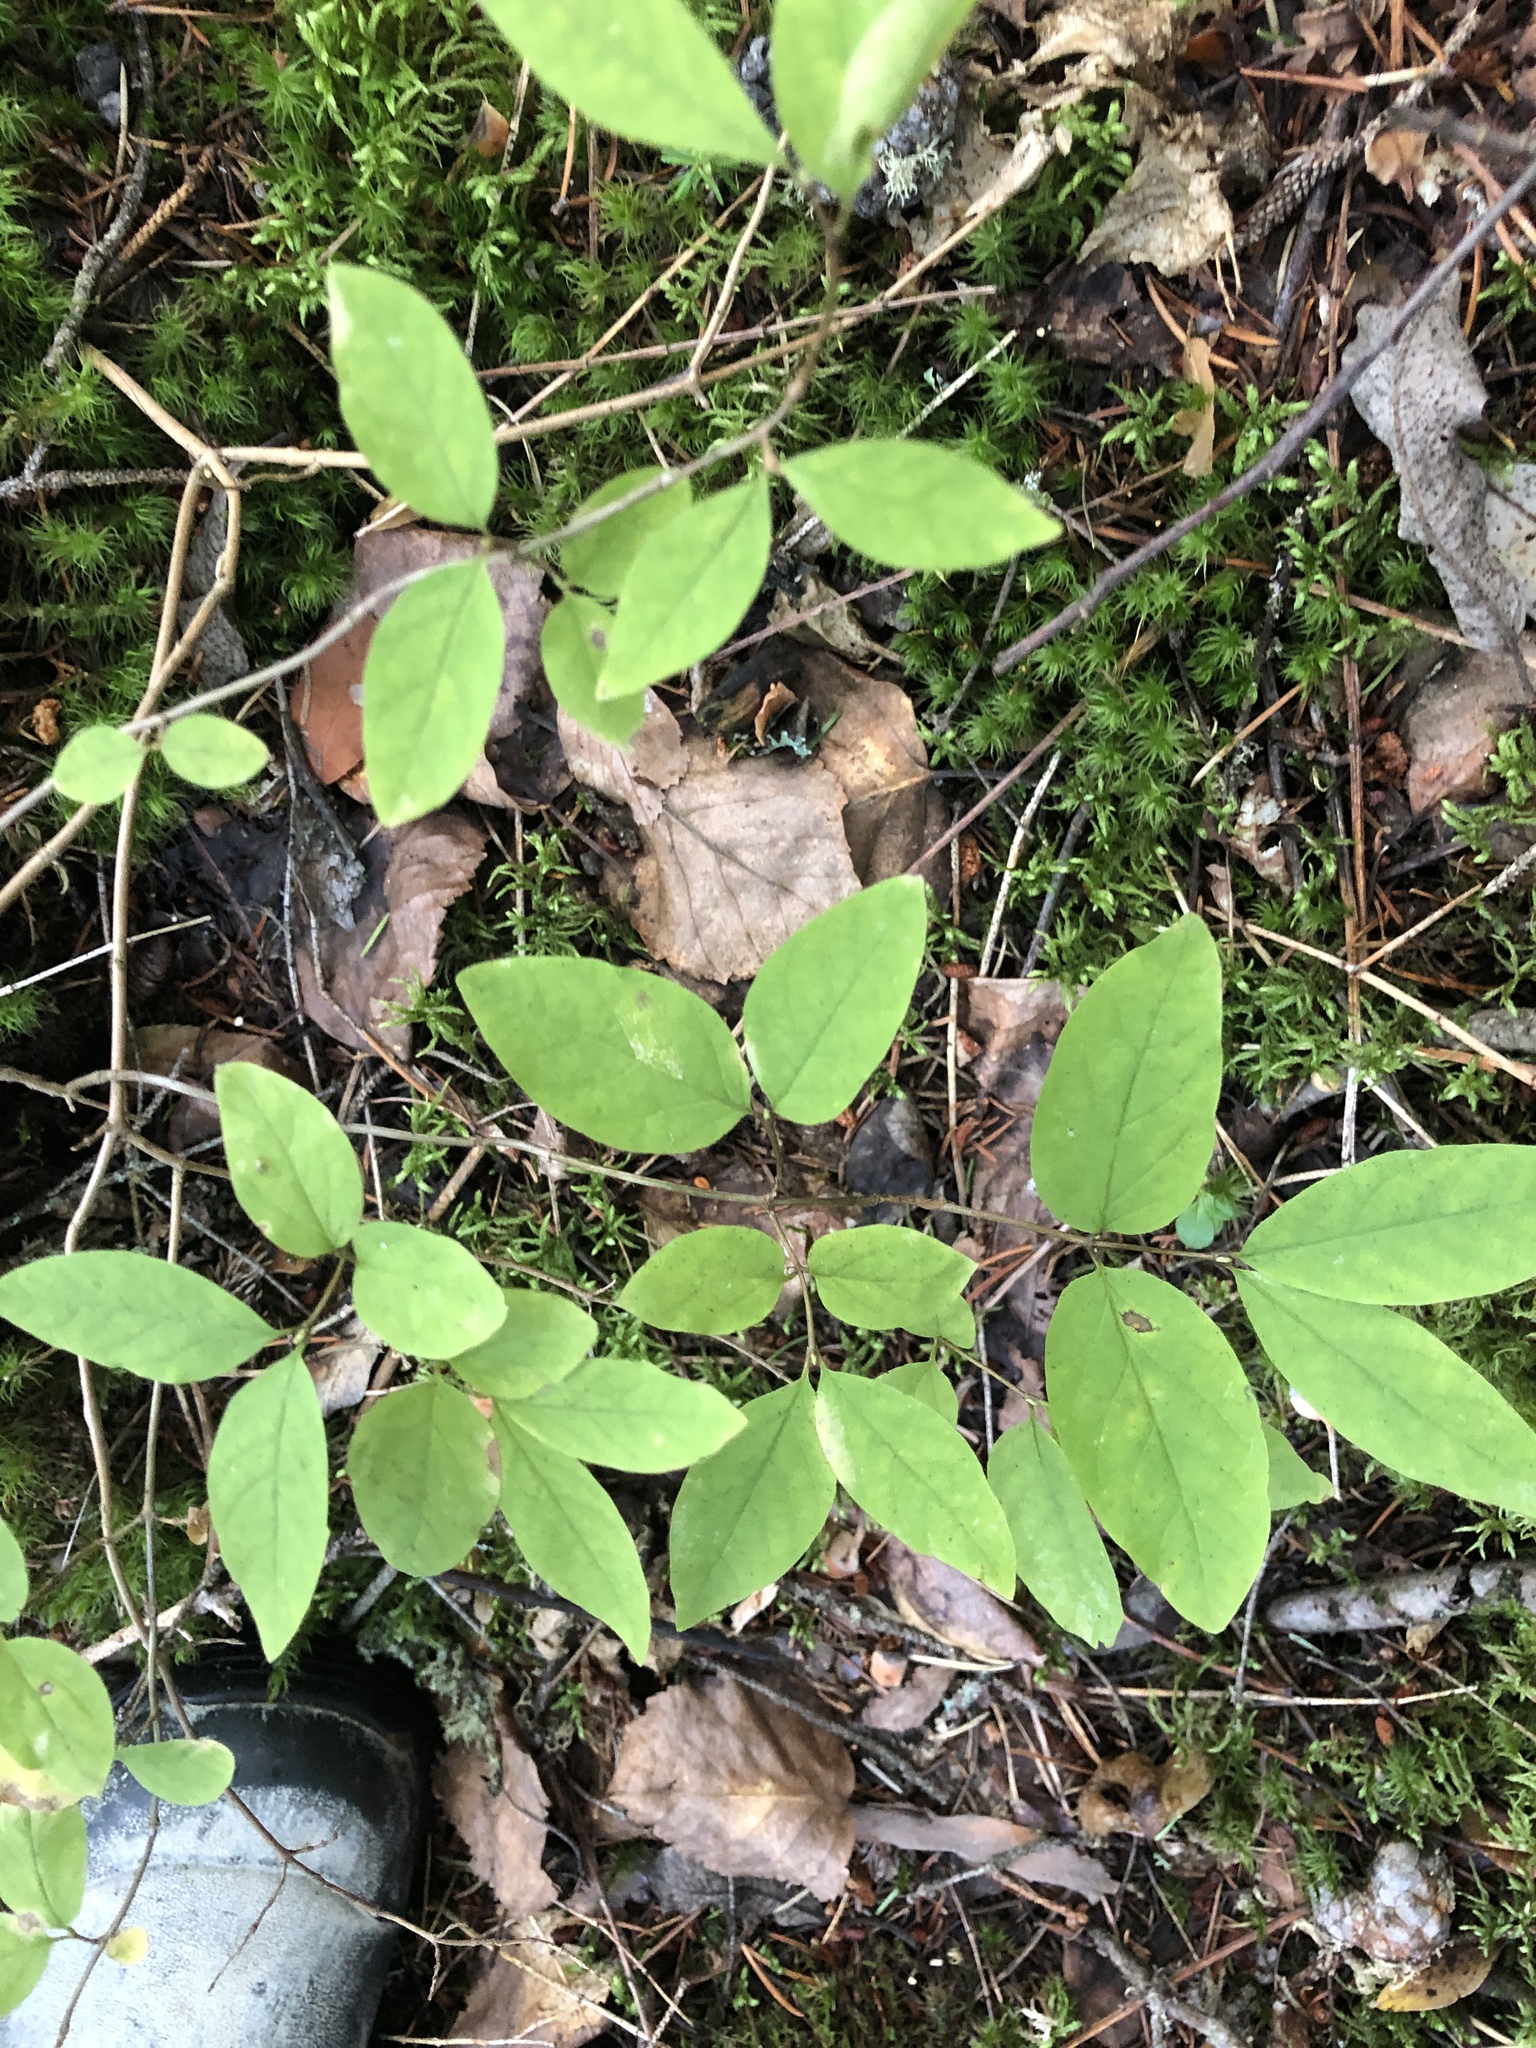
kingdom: Plantae
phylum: Tracheophyta
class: Magnoliopsida
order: Dipsacales
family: Caprifoliaceae
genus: Lonicera
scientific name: Lonicera canadensis
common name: American fly-honeysuckle
